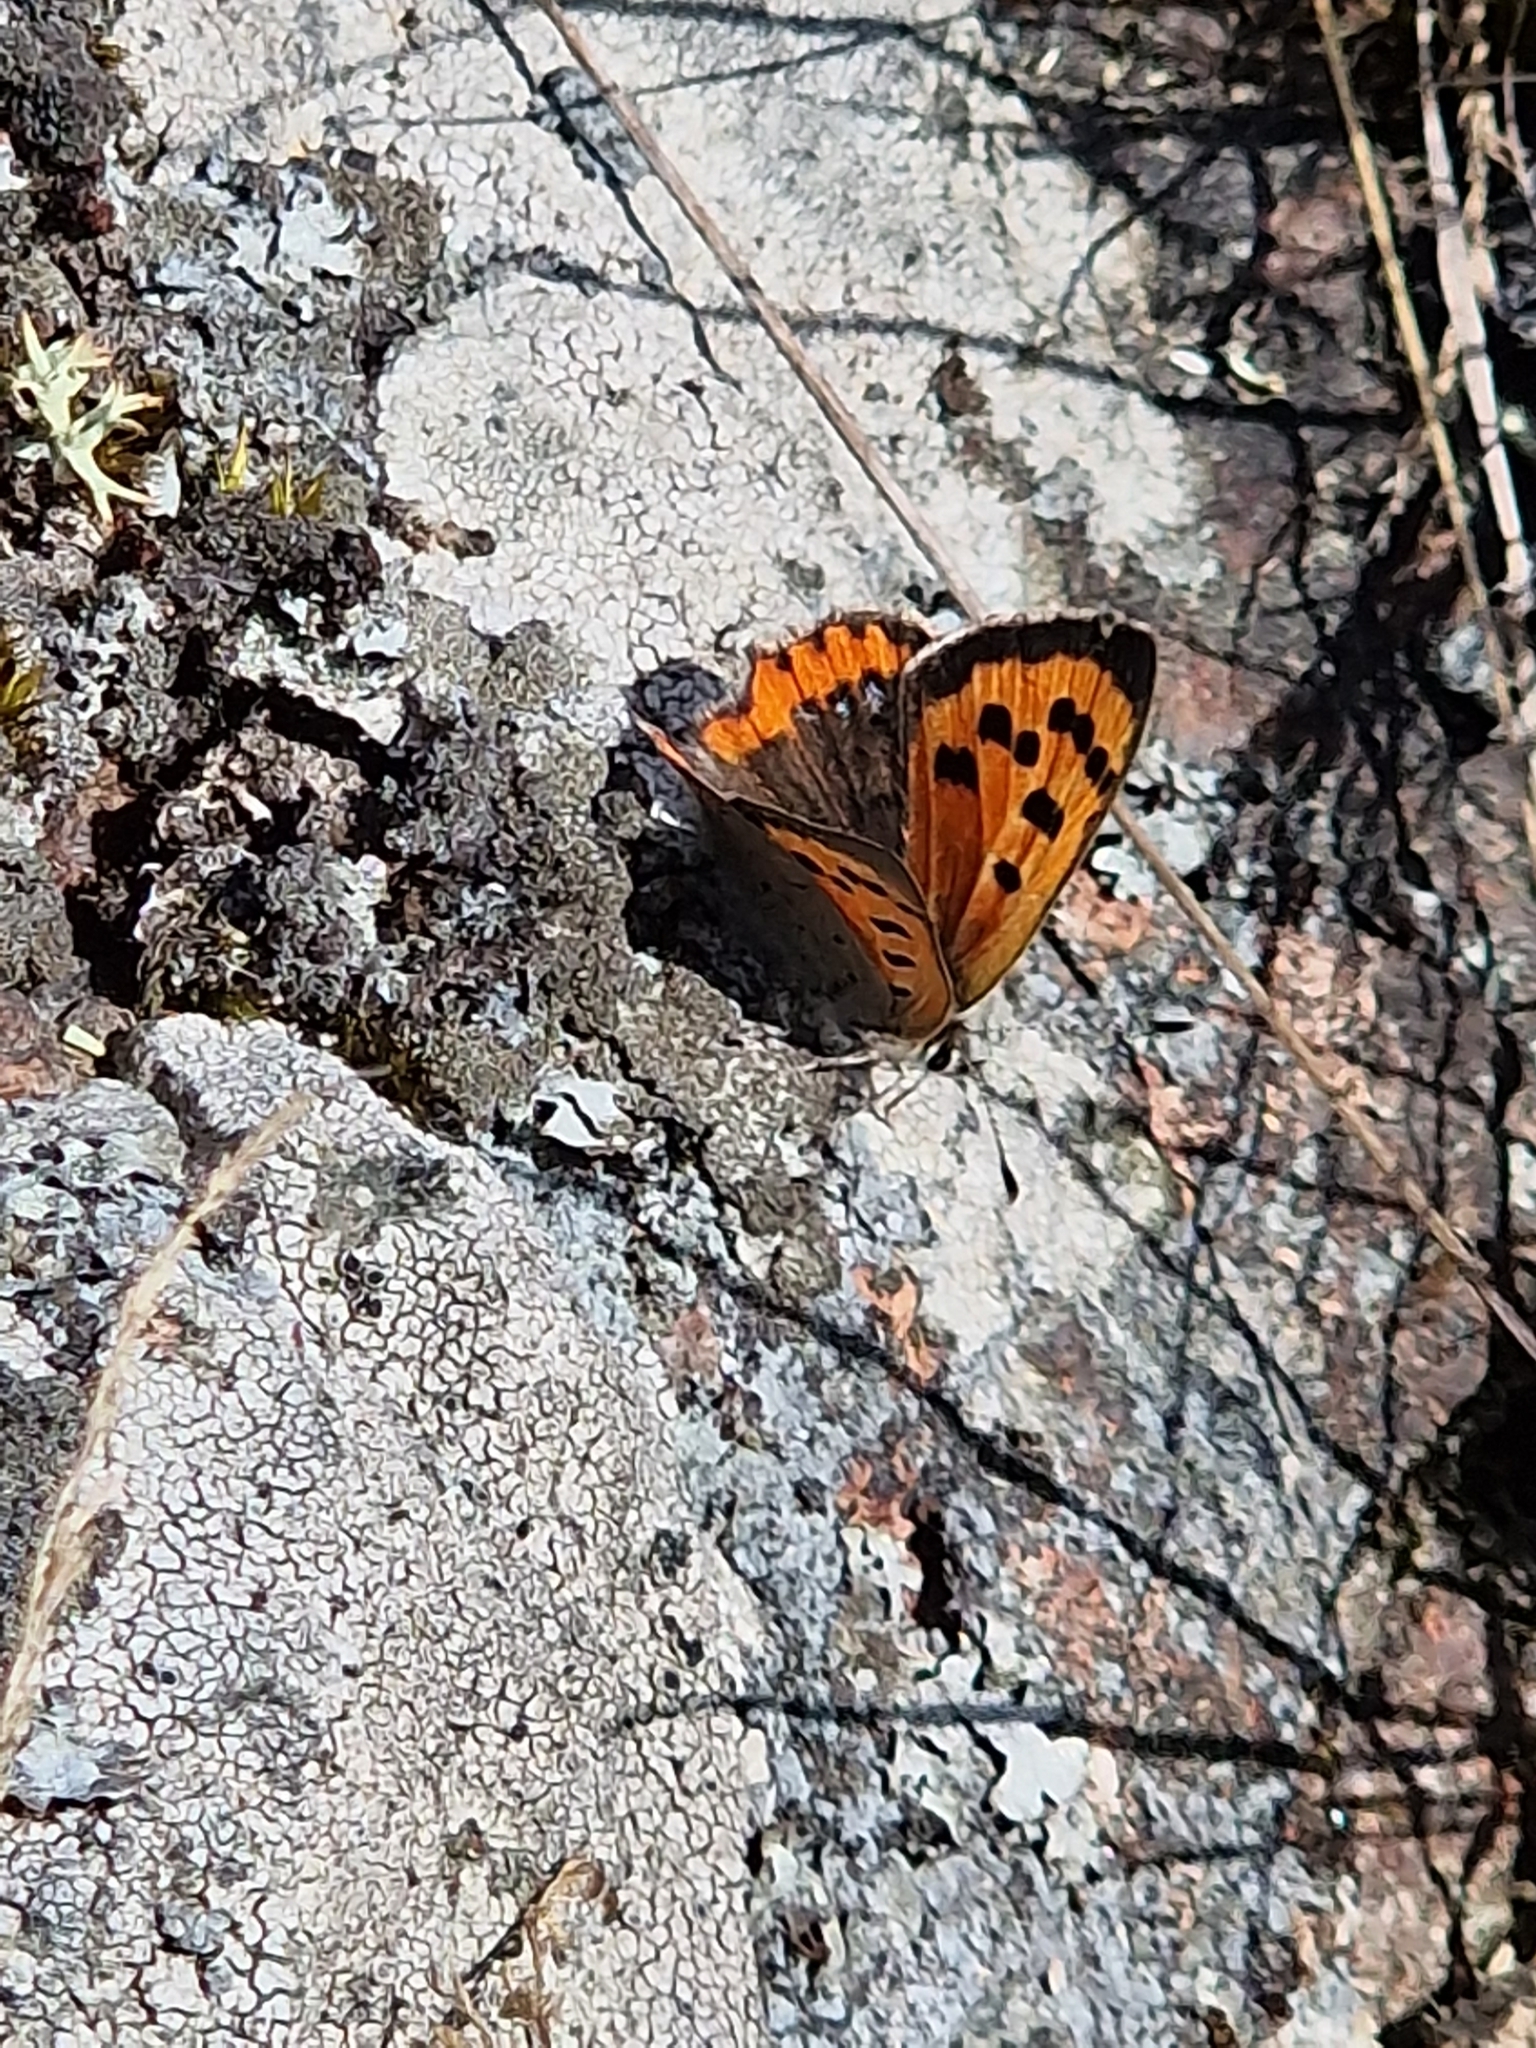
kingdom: Animalia
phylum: Arthropoda
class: Insecta
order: Lepidoptera
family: Lycaenidae
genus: Lycaena
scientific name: Lycaena phlaeas
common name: Small copper
